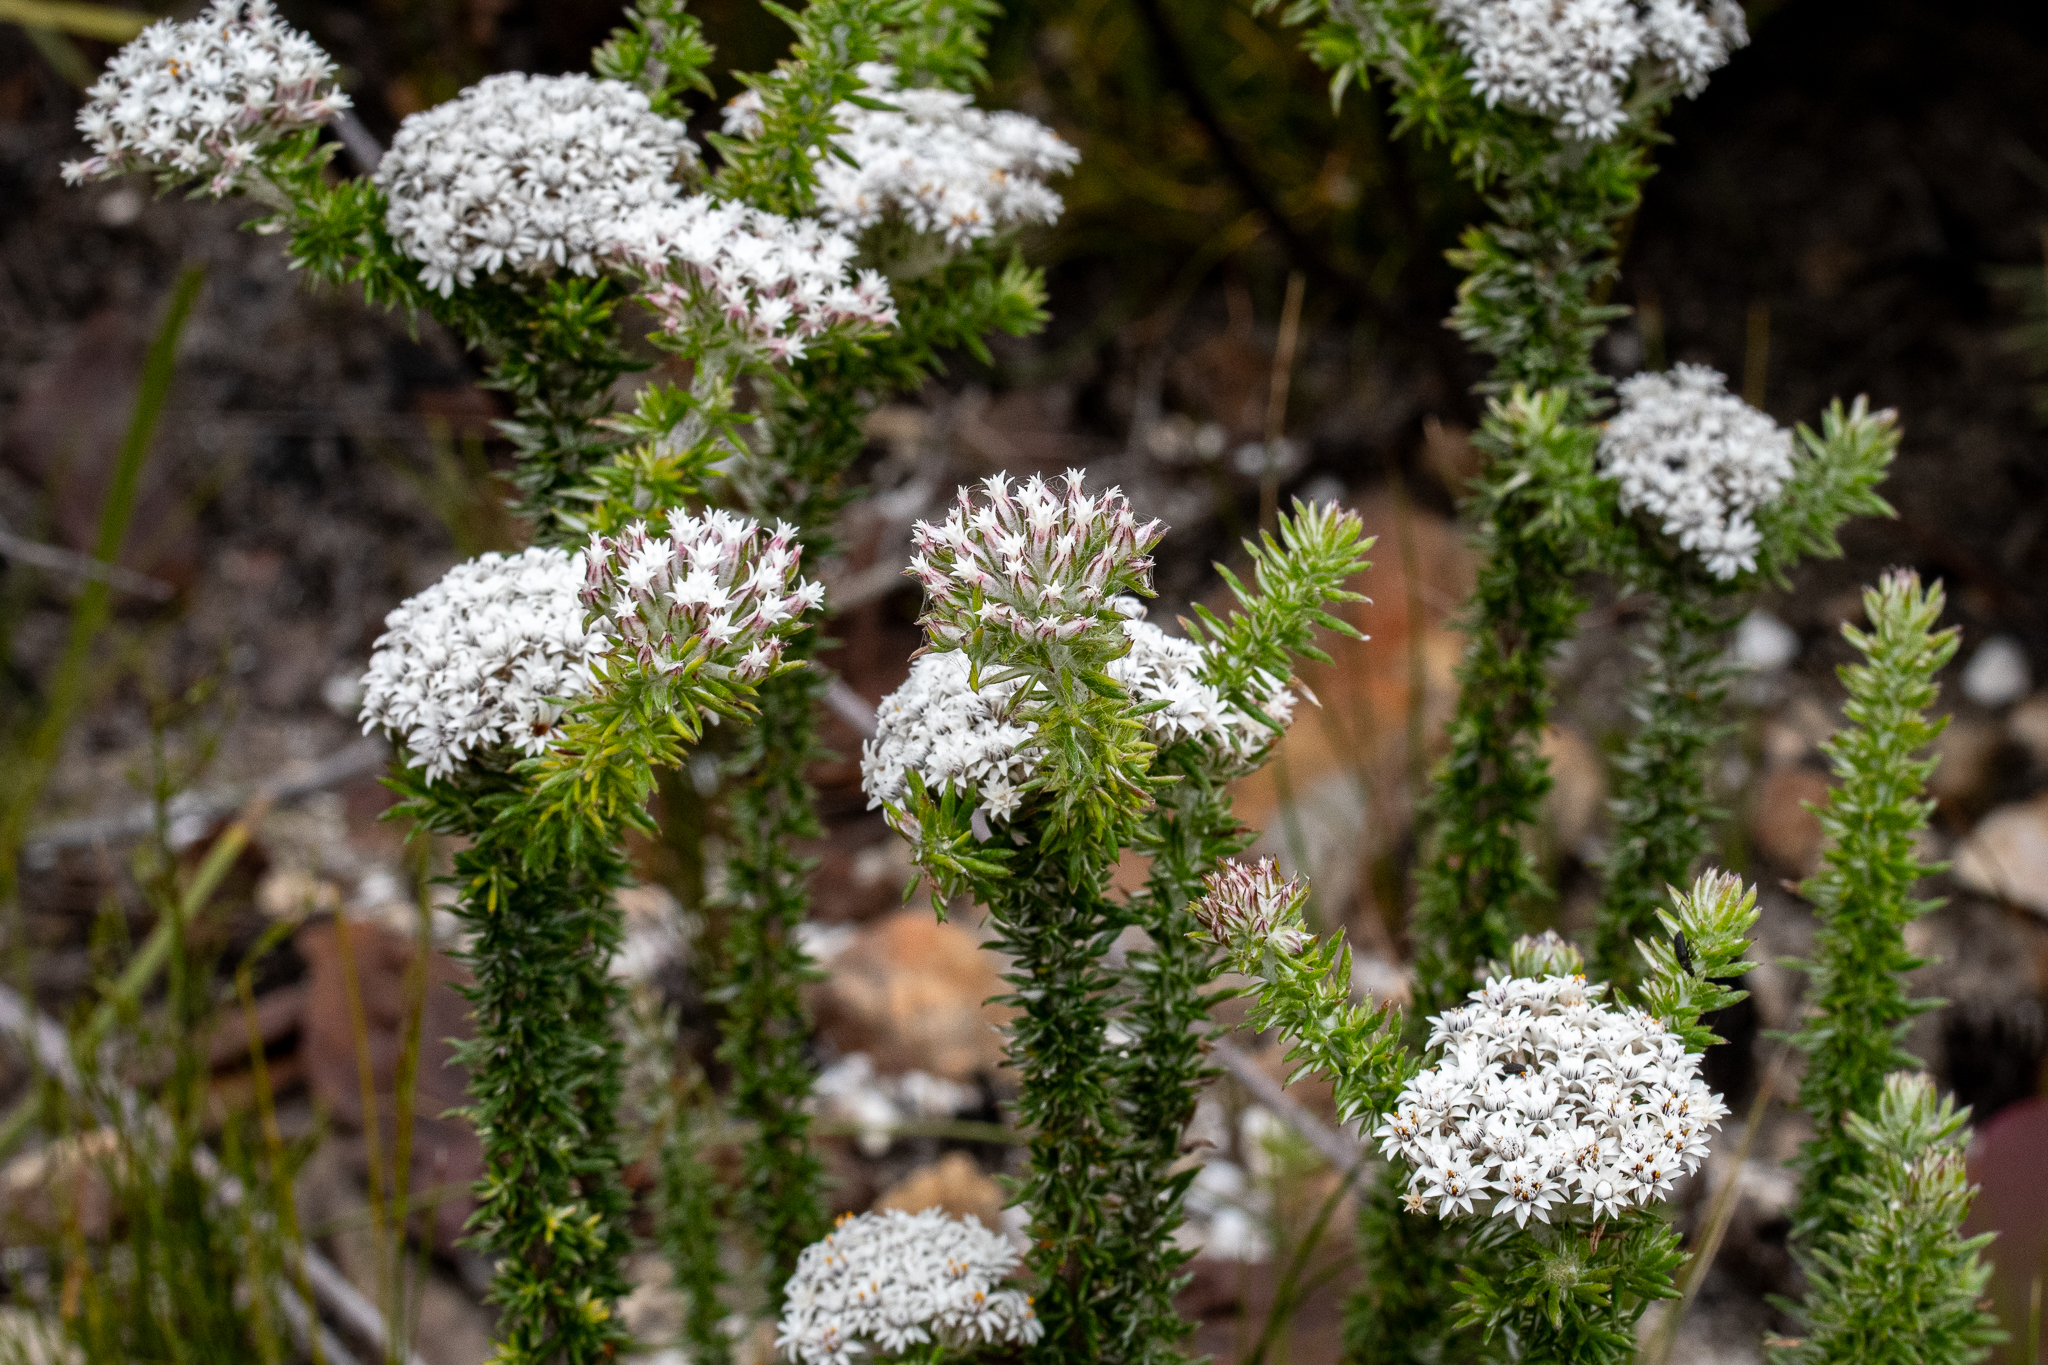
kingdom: Plantae
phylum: Tracheophyta
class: Magnoliopsida
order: Asterales
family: Asteraceae
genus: Metalasia
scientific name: Metalasia lichtensteinii
